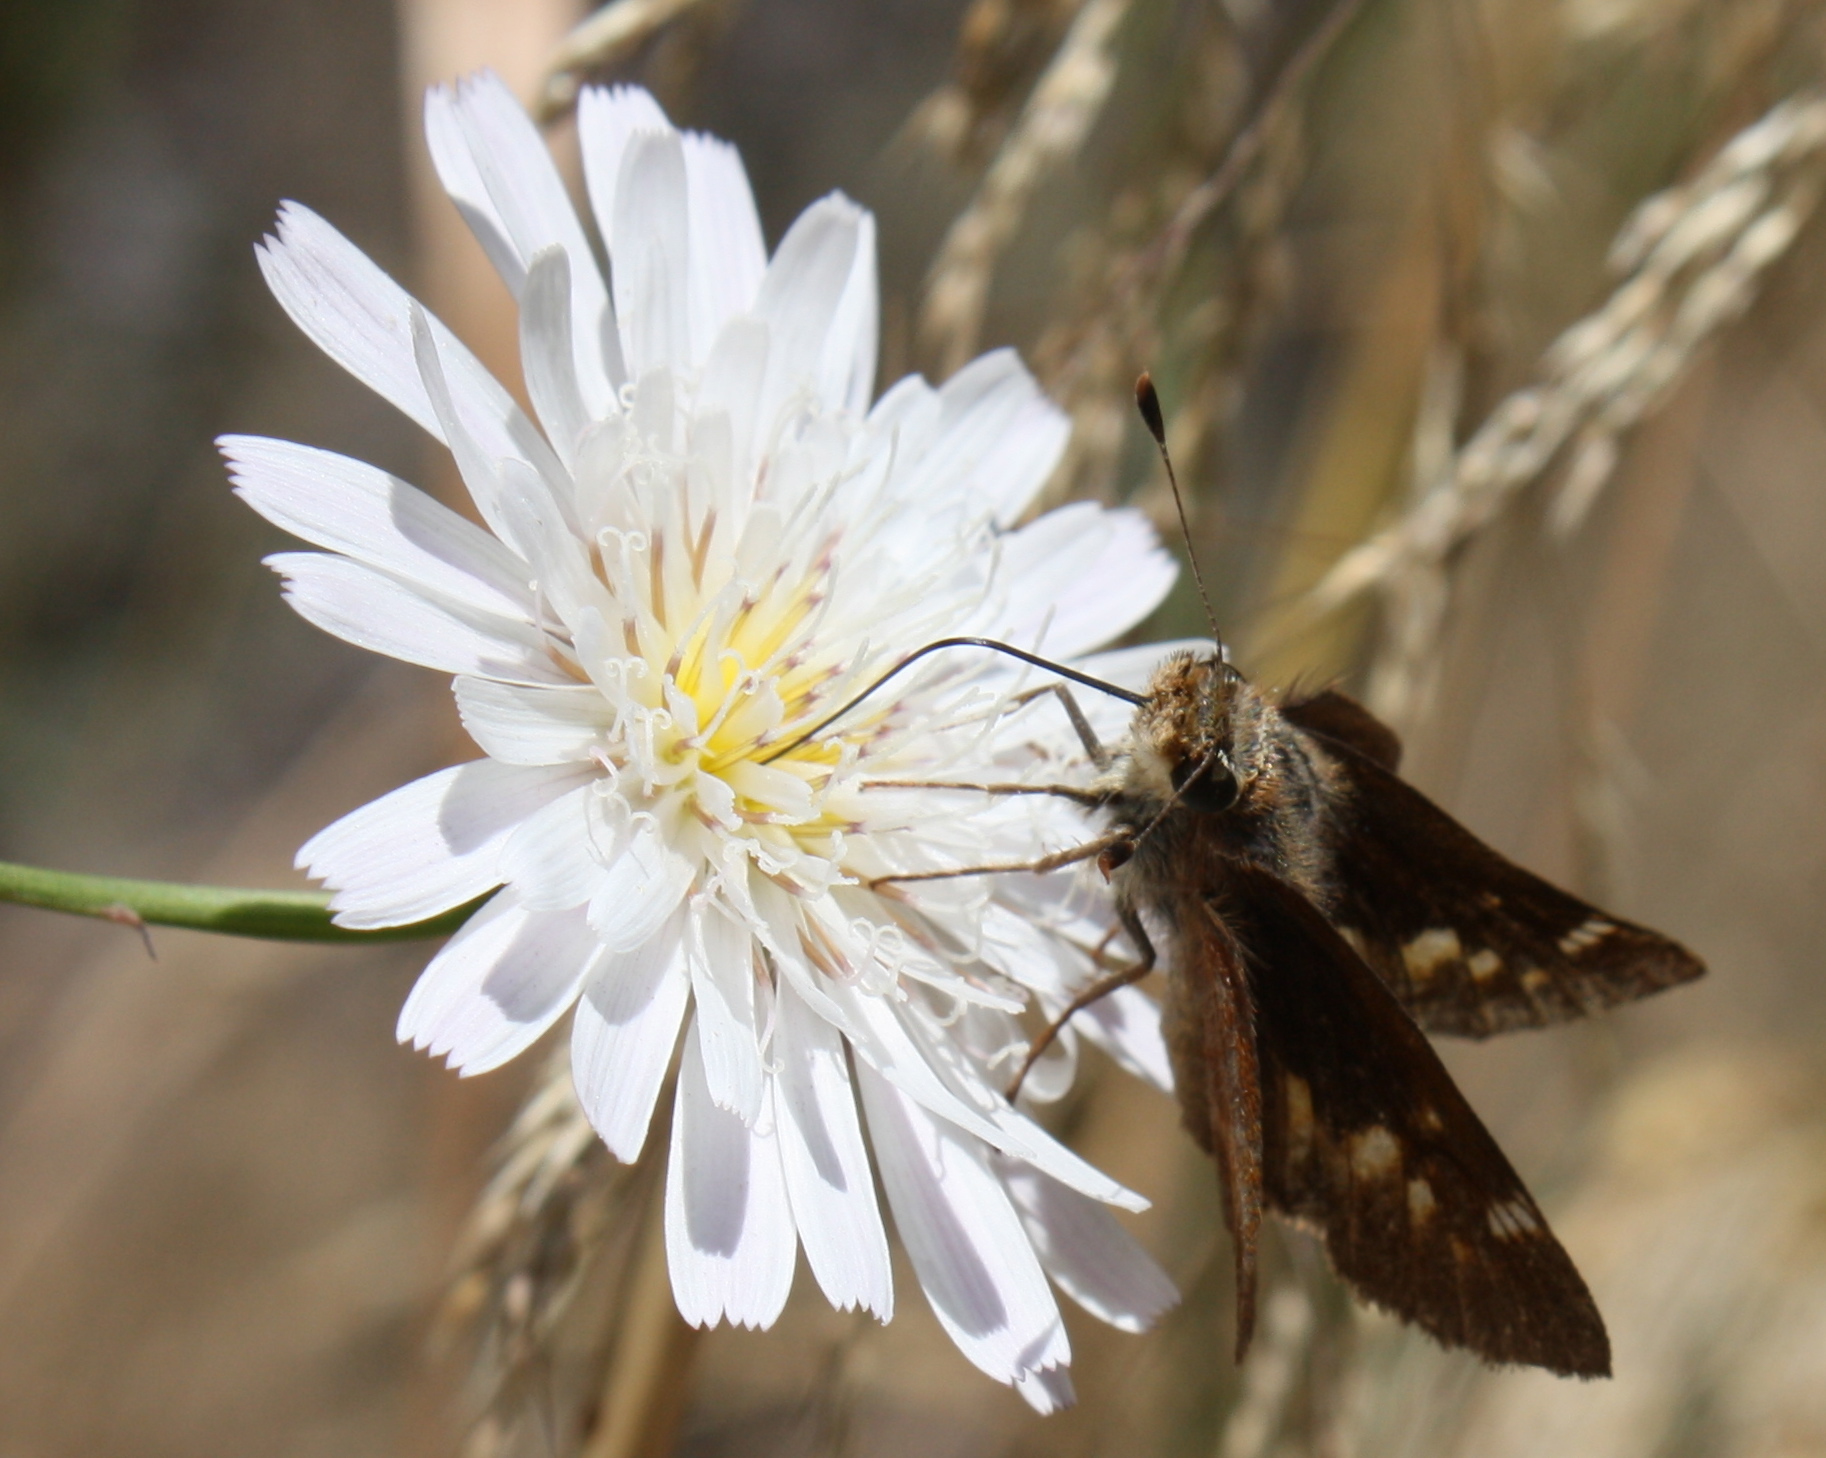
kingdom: Animalia
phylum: Arthropoda
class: Insecta
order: Lepidoptera
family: Hesperiidae
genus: Lon
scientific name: Lon melane
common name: Umber skipper
